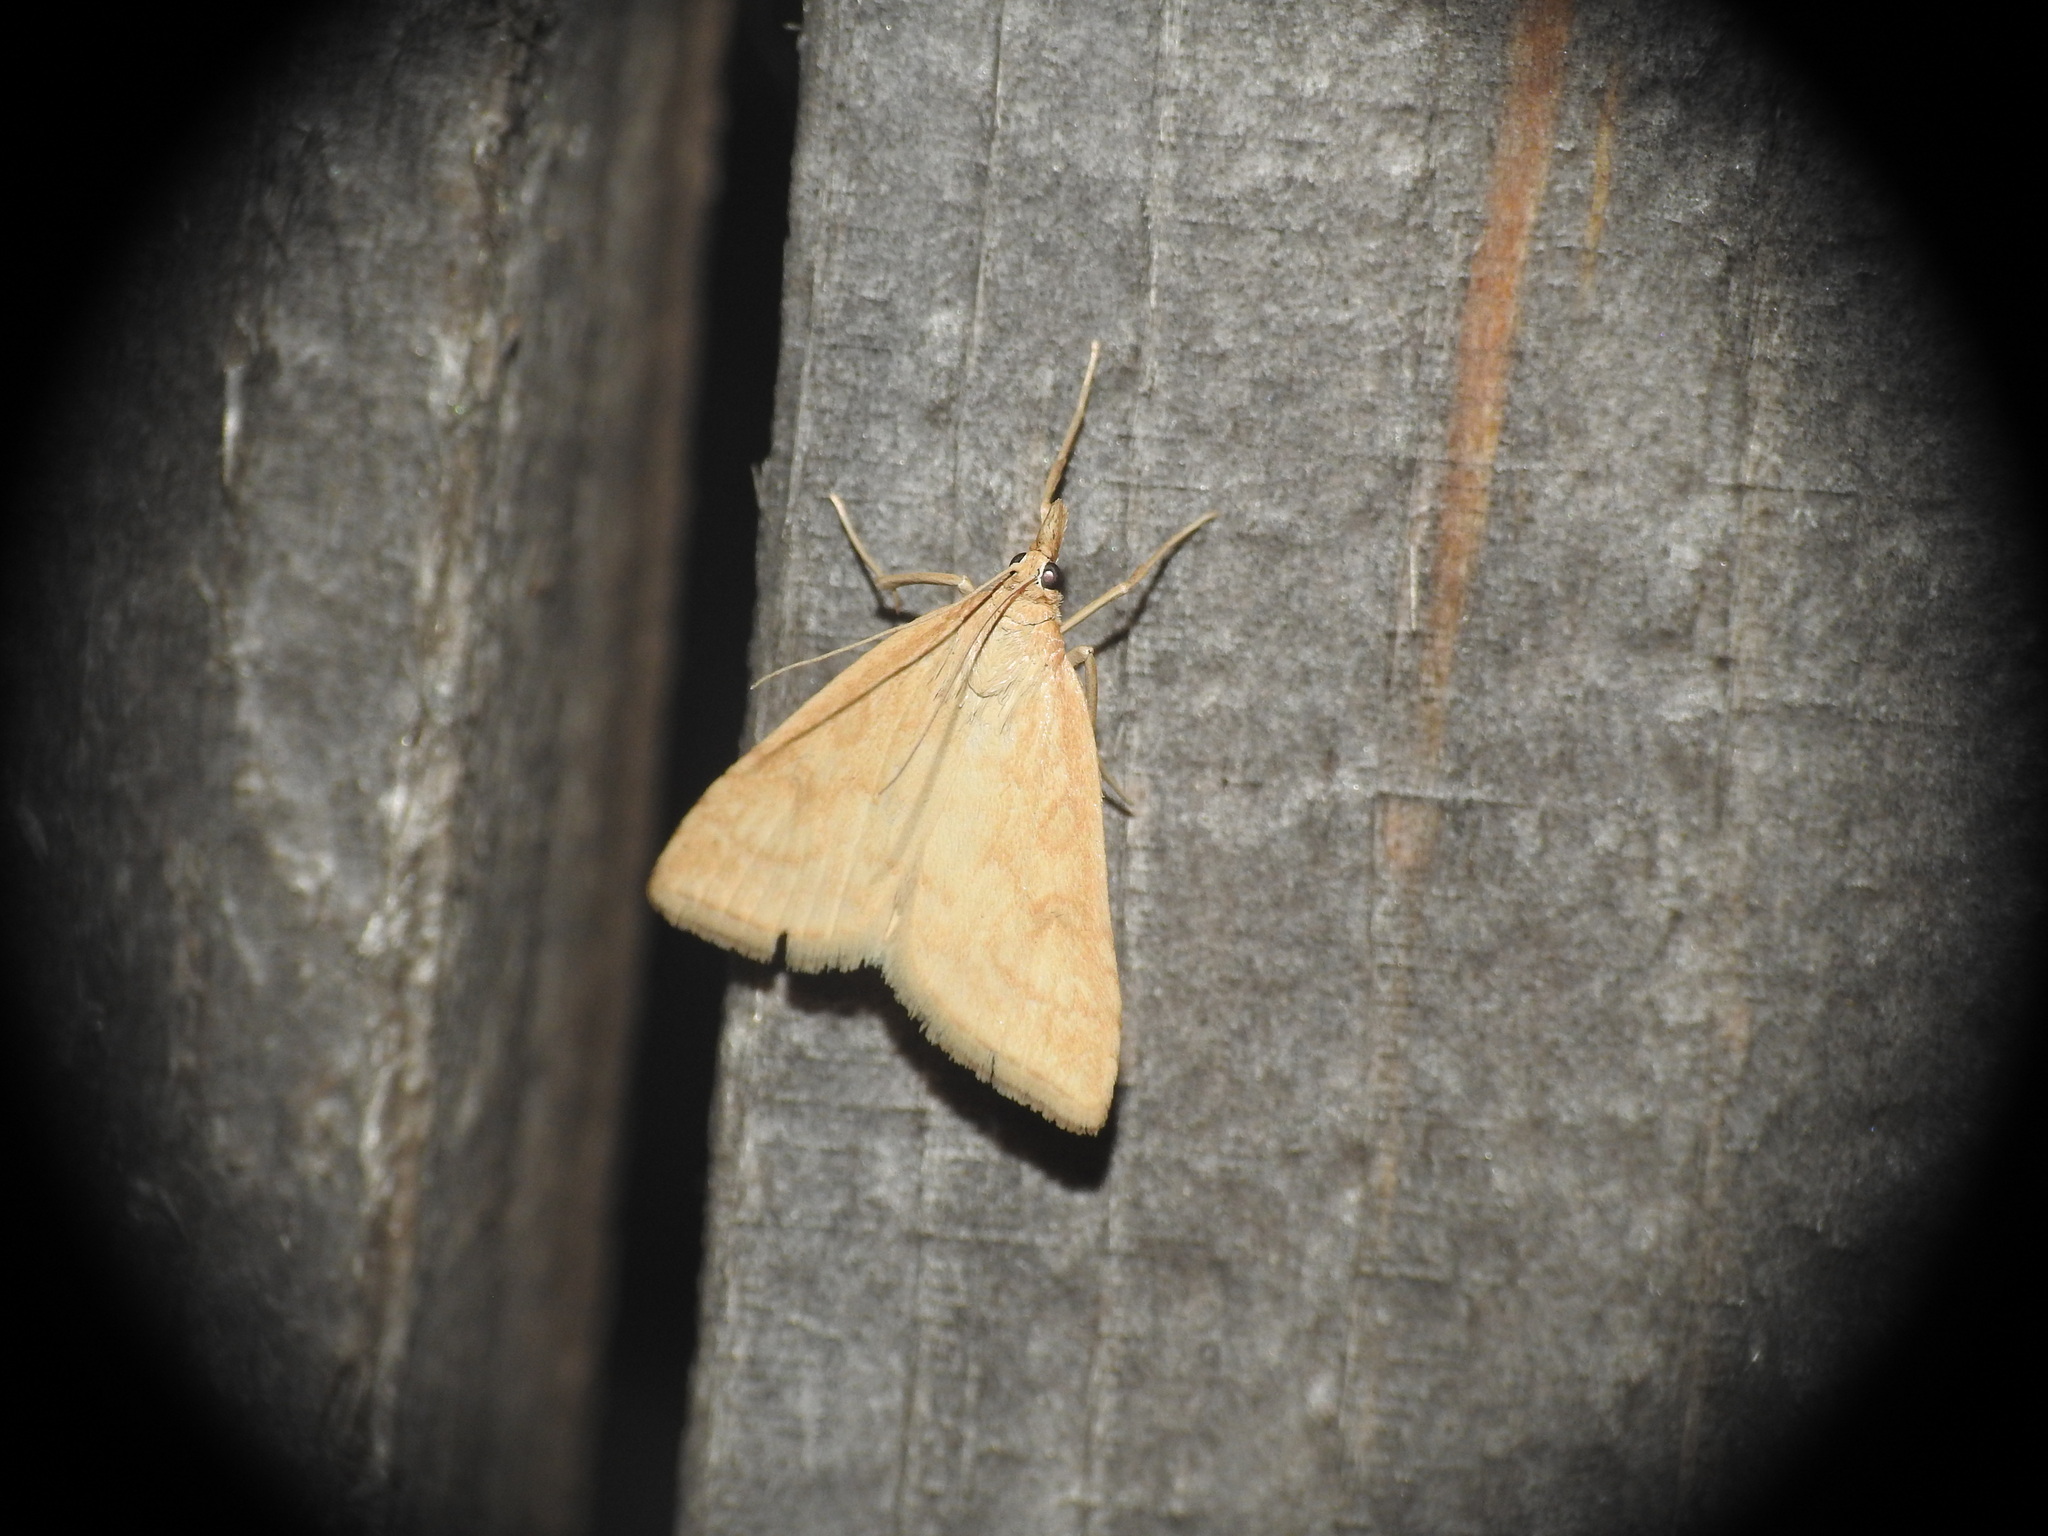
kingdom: Animalia
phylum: Arthropoda
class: Insecta
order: Lepidoptera
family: Crambidae
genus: Udea
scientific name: Udea lutealis
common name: Pale straw pearl
